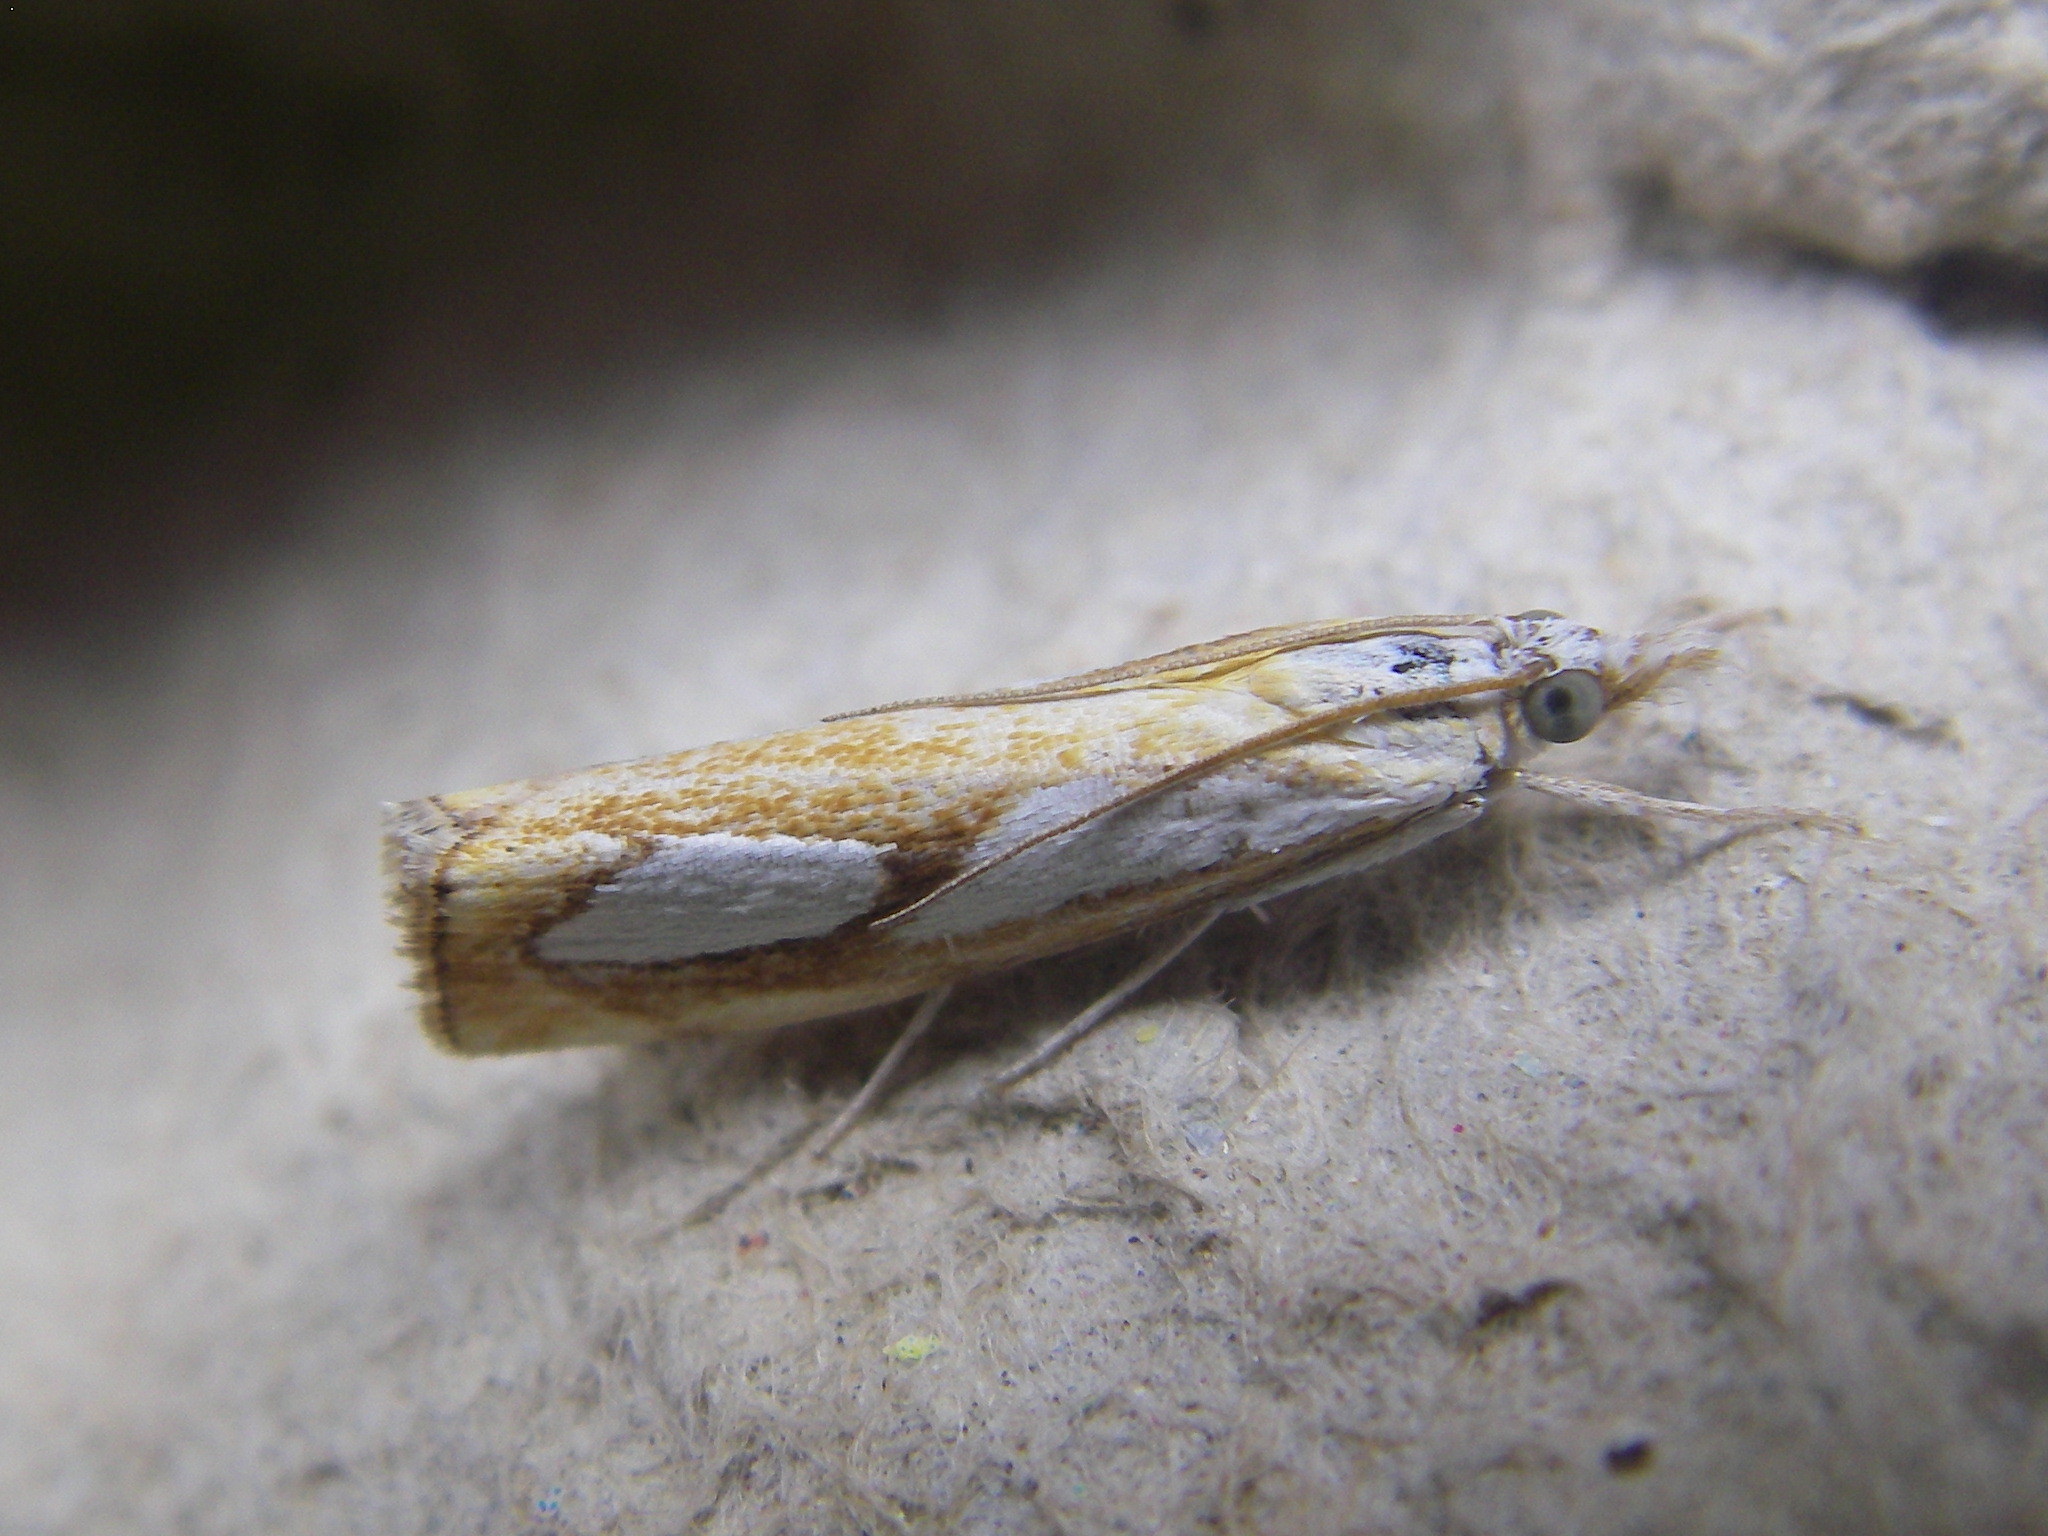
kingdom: Animalia
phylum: Arthropoda
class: Insecta
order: Lepidoptera
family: Crambidae
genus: Catoptria
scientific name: Catoptria pinella
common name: Pearl grass-veneer
